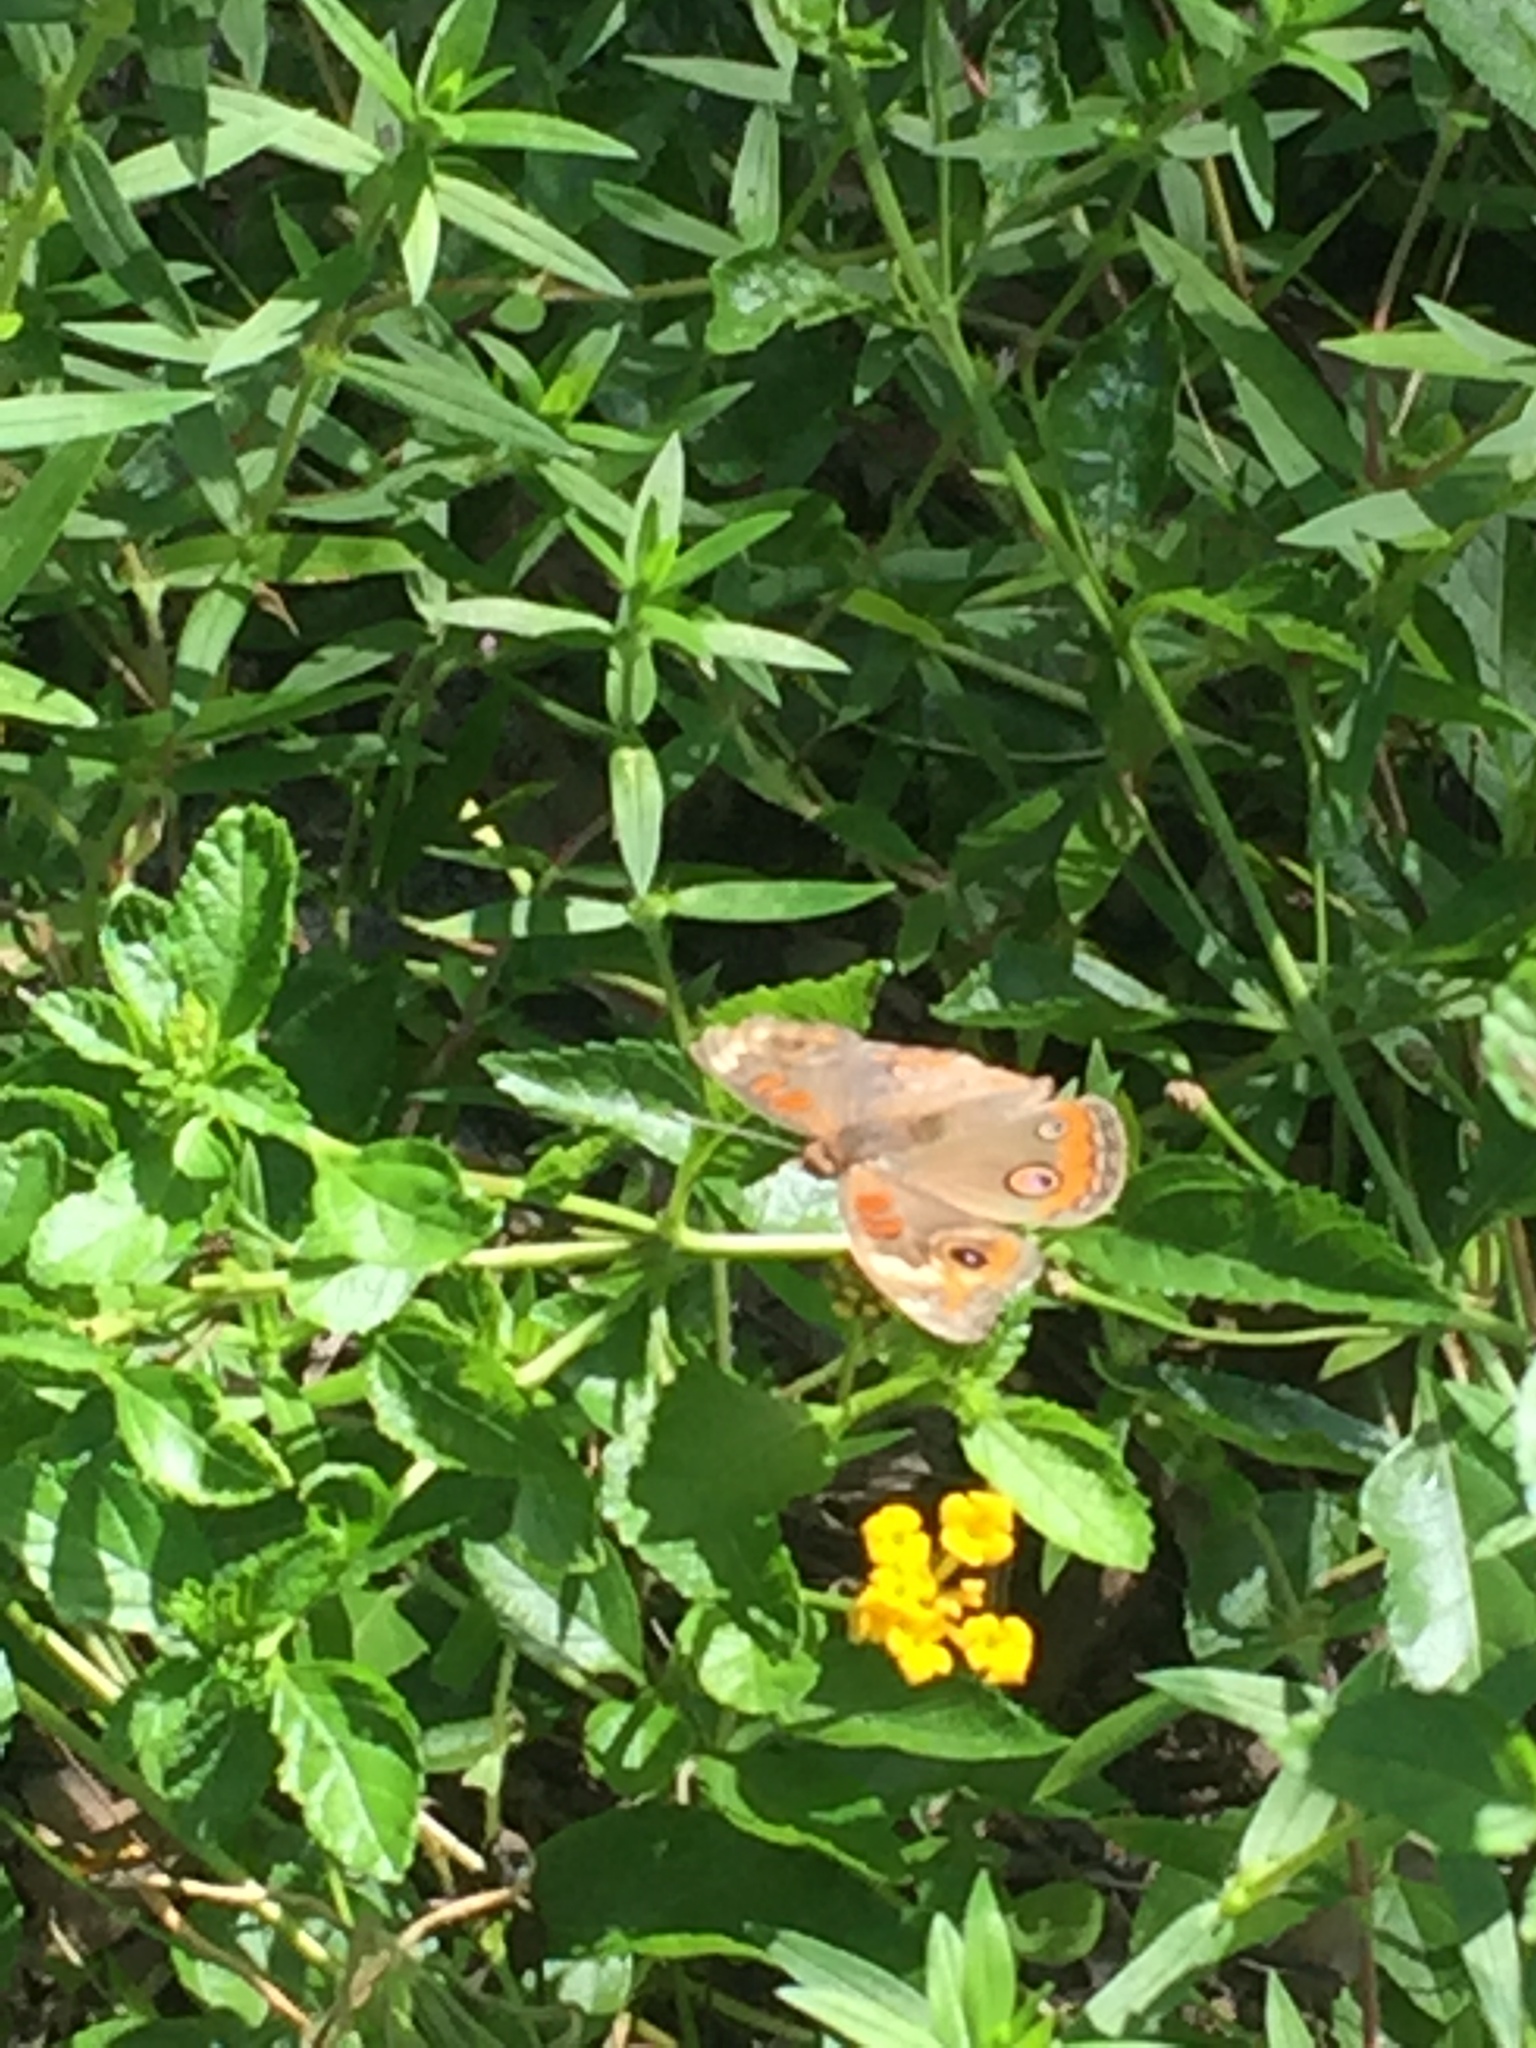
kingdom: Animalia
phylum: Arthropoda
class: Insecta
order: Lepidoptera
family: Nymphalidae
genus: Junonia
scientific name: Junonia coenia
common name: Common buckeye
